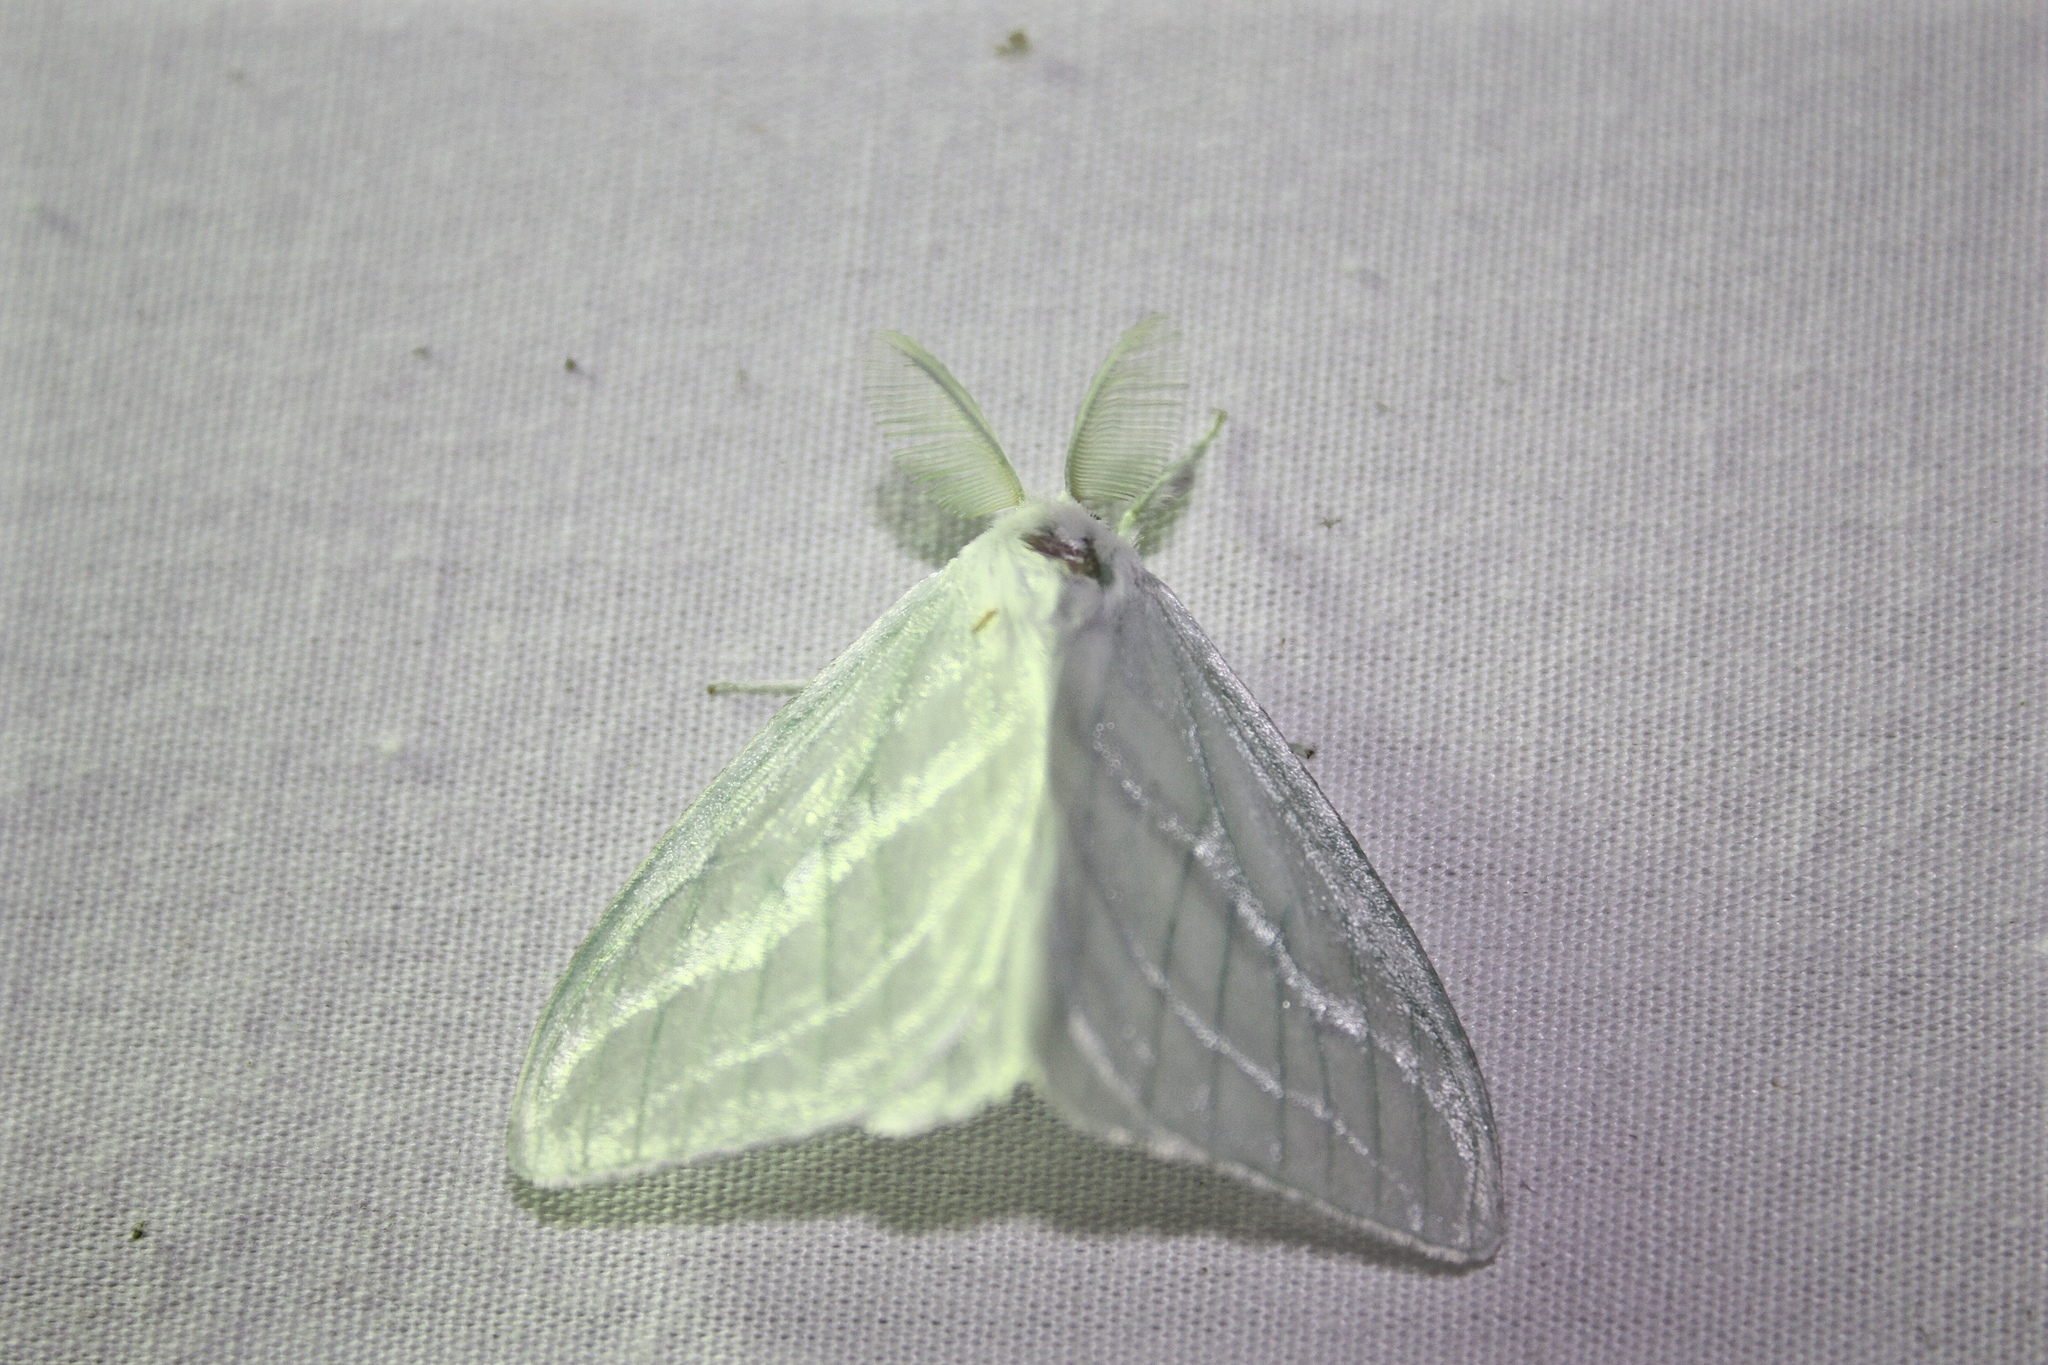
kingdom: Animalia
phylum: Arthropoda
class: Insecta
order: Lepidoptera
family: Erebidae
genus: Caviria
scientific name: Caviria vinasia
